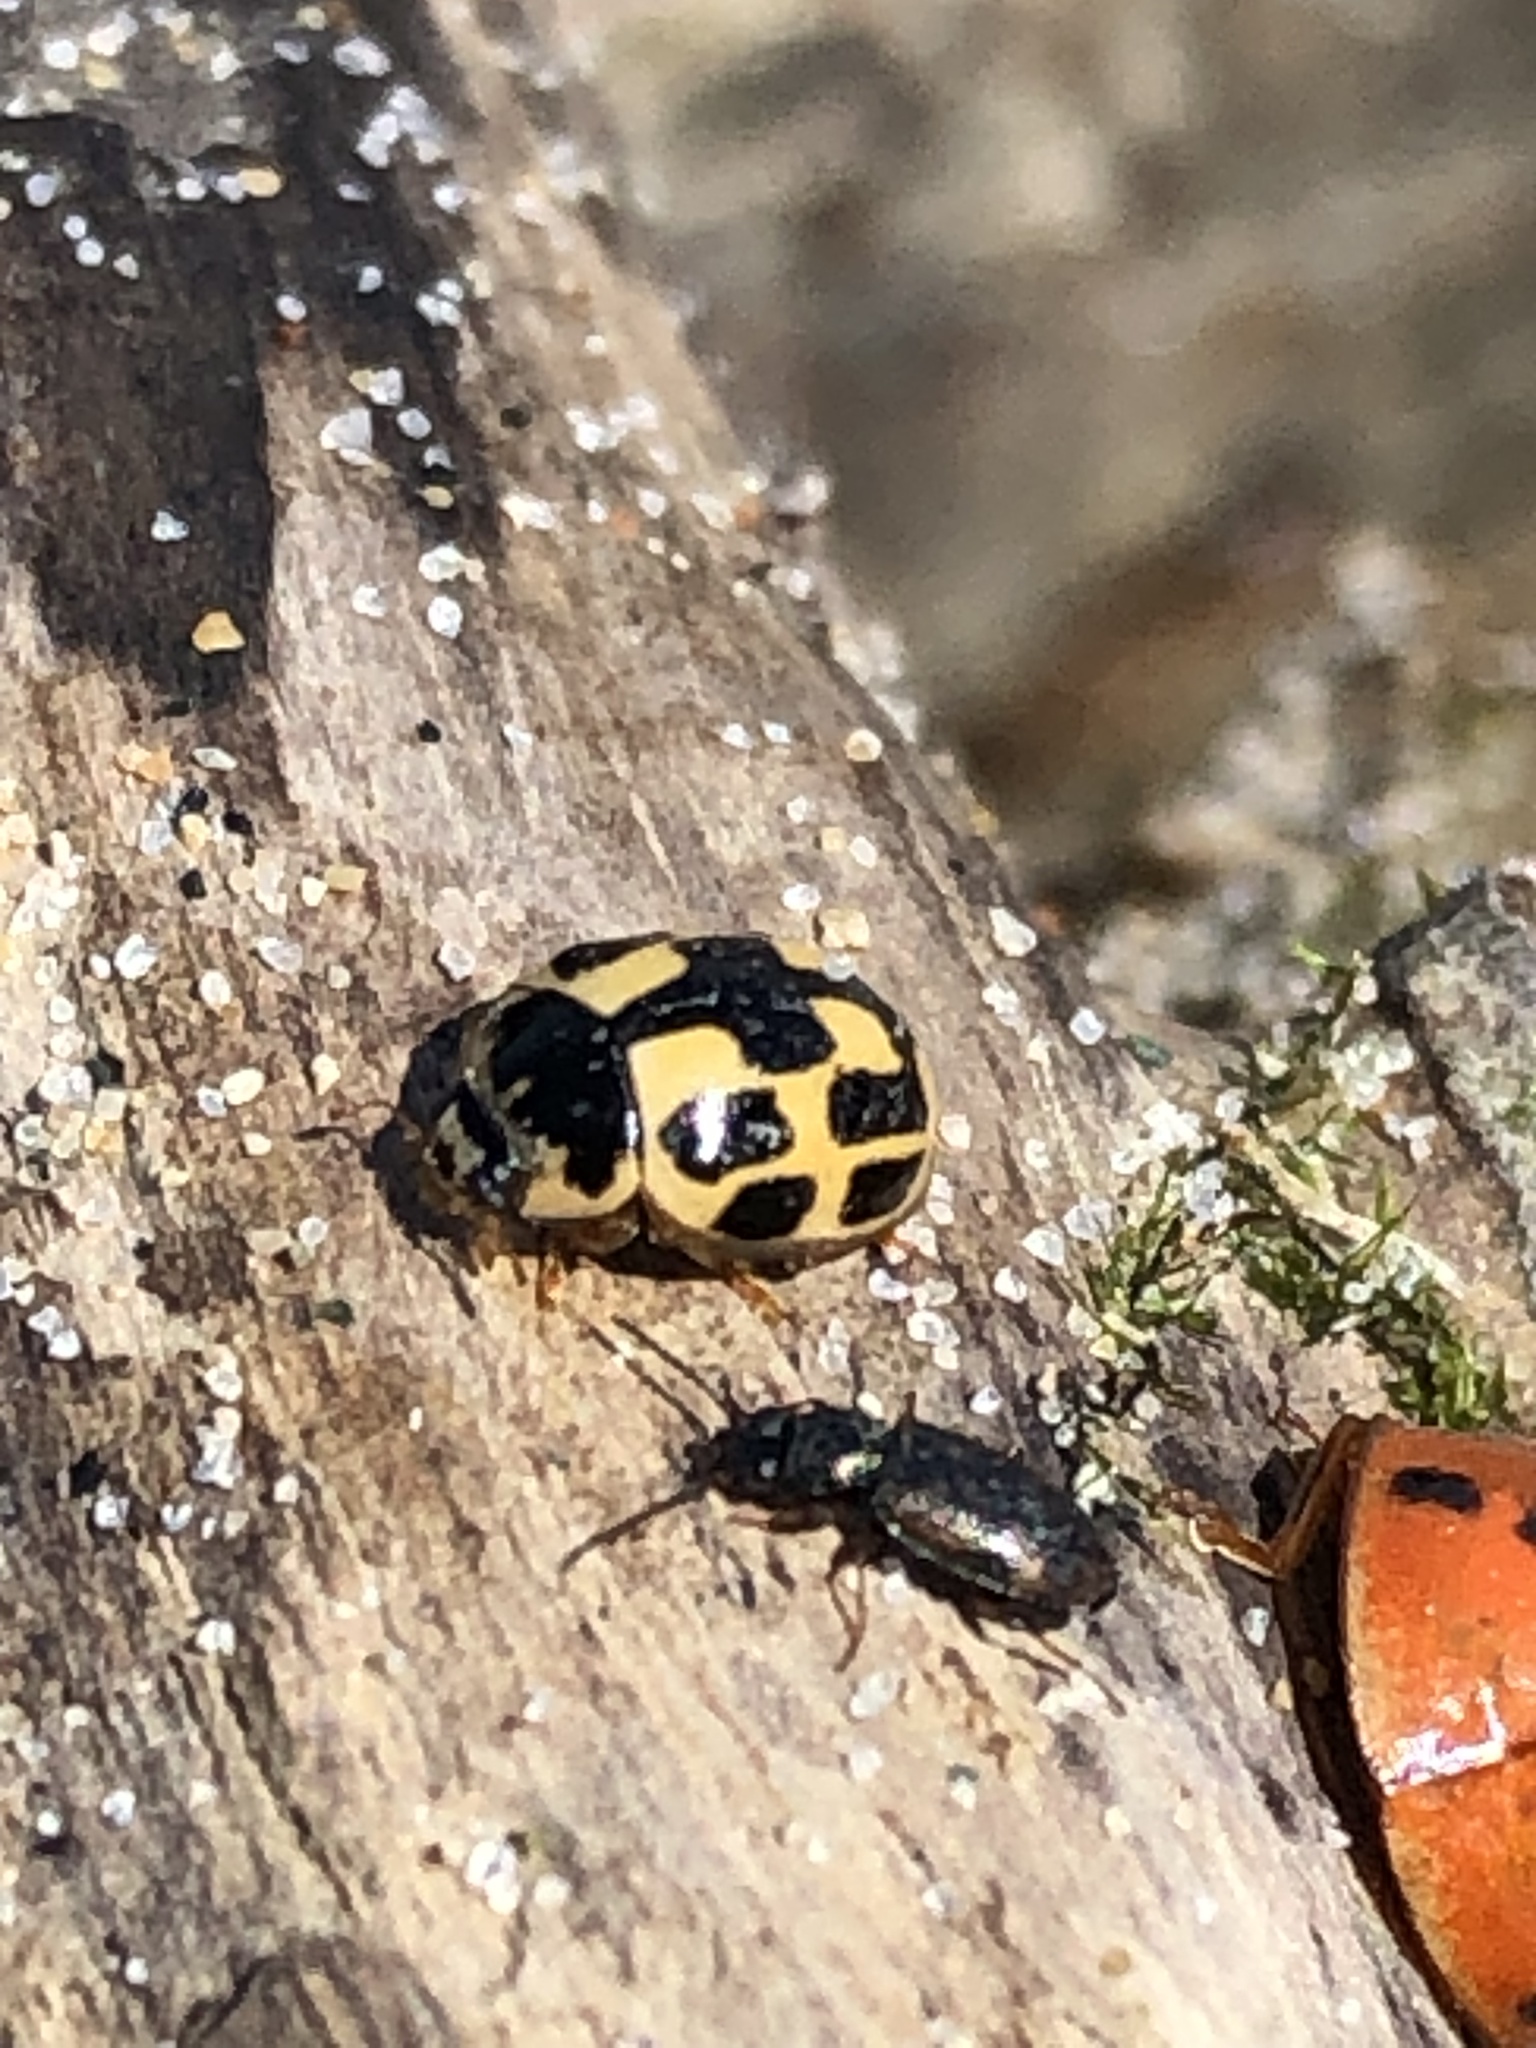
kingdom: Animalia
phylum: Arthropoda
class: Insecta
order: Coleoptera
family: Coccinellidae
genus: Propylaea
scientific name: Propylaea quatuordecimpunctata
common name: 14-spotted ladybird beetle
